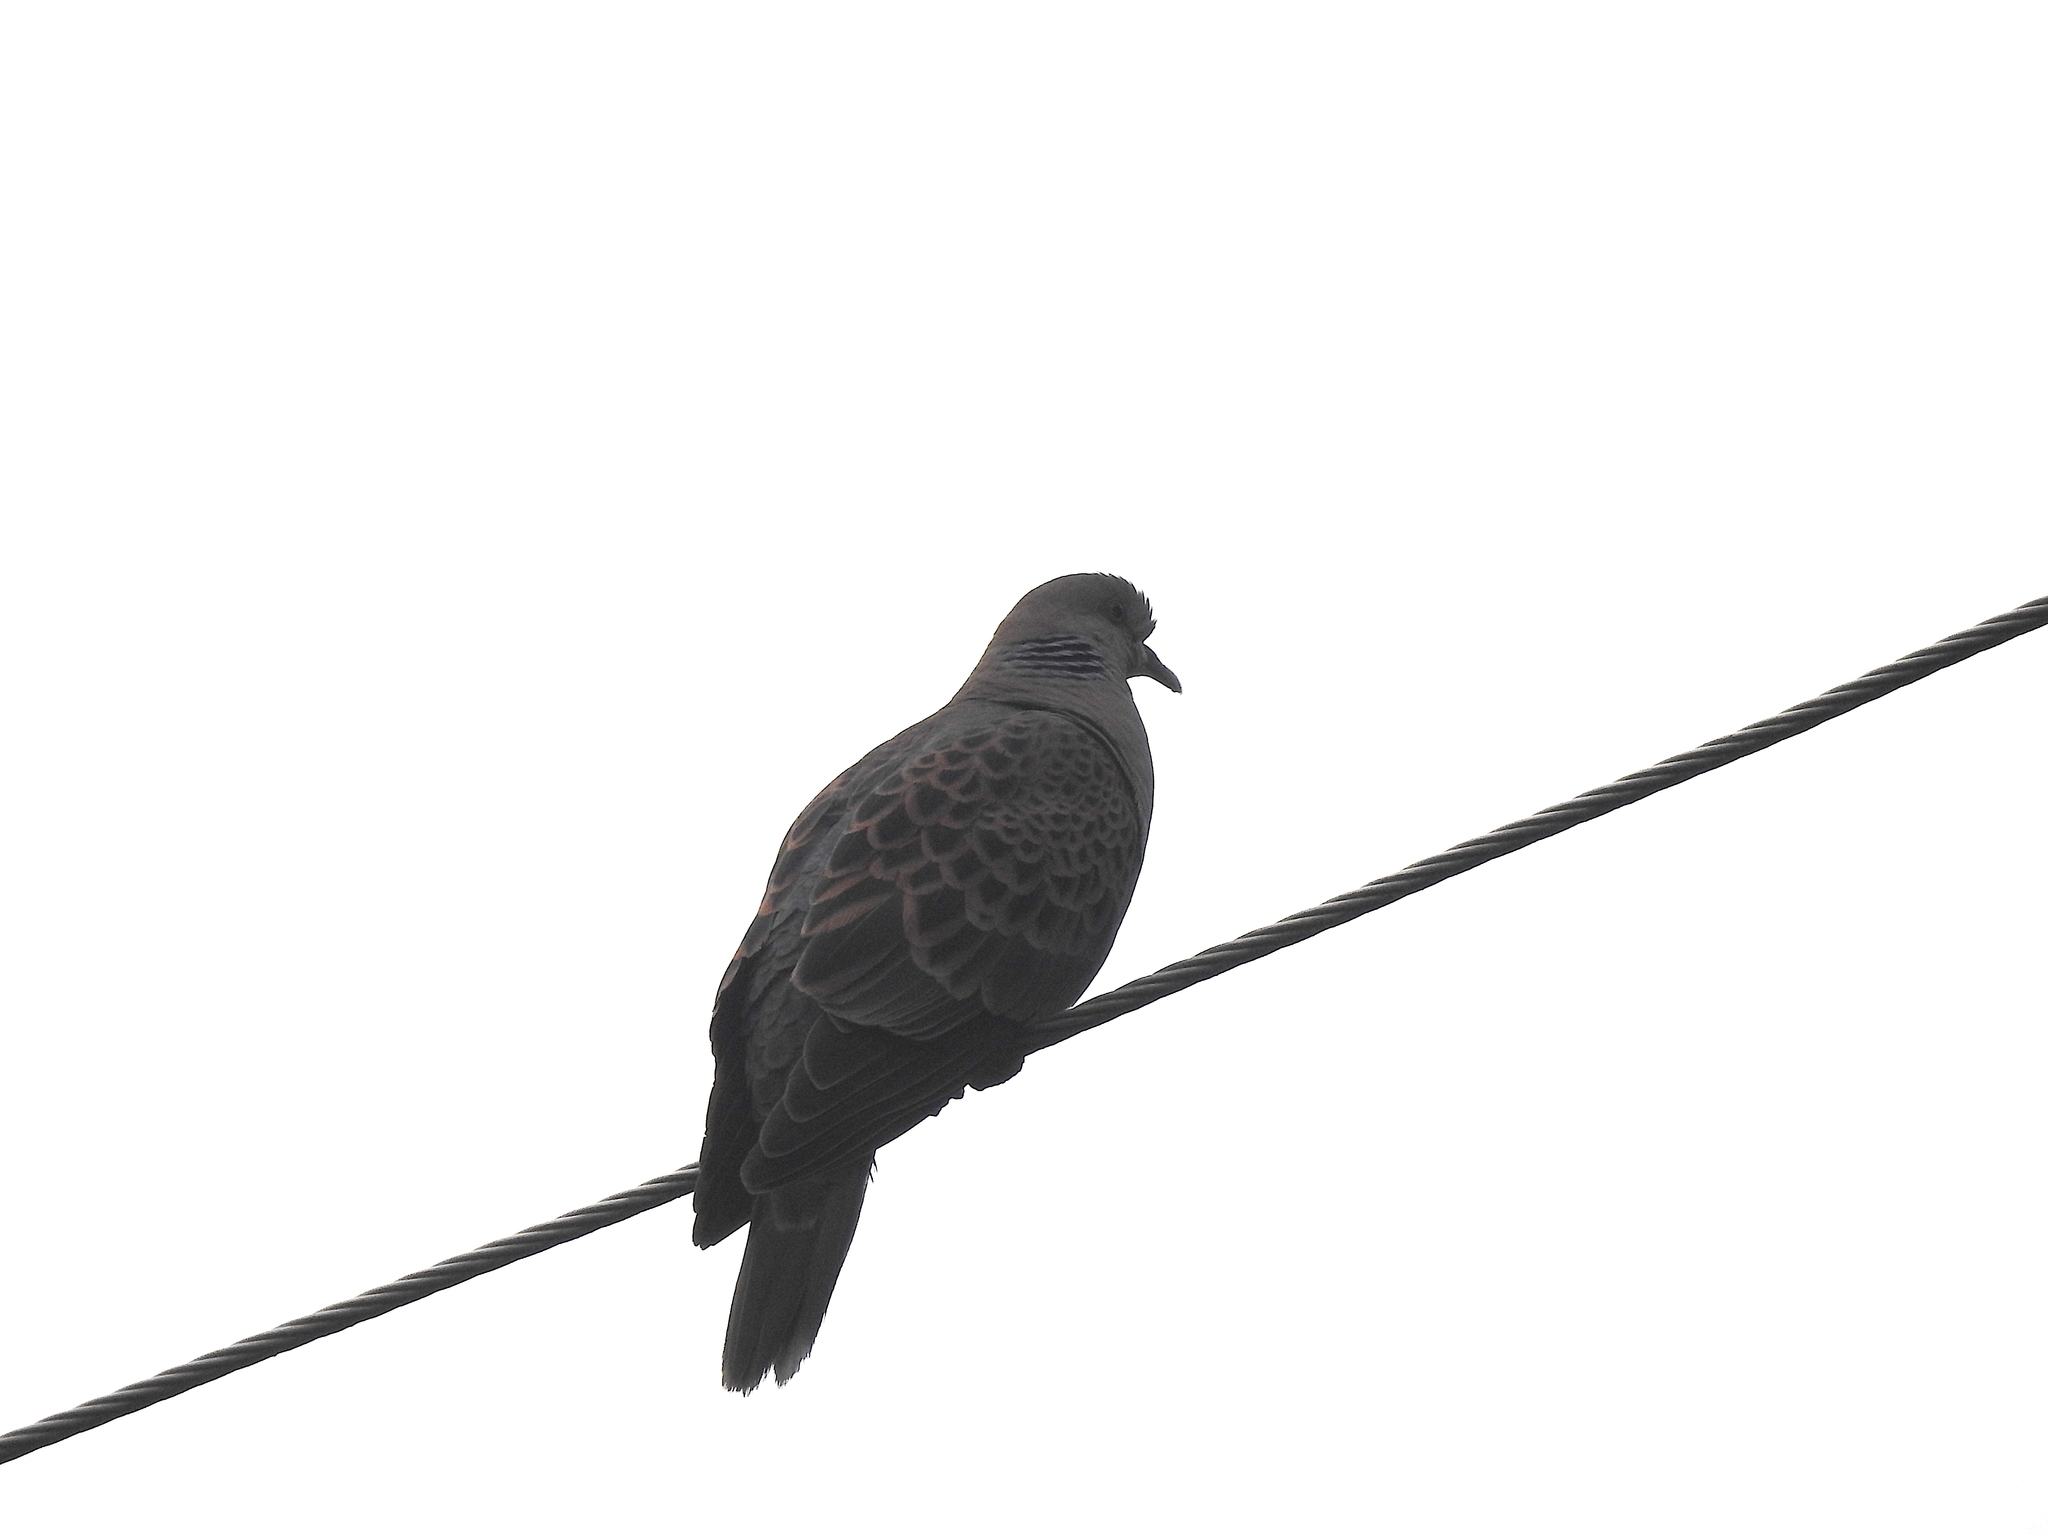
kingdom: Animalia
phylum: Chordata
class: Aves
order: Columbiformes
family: Columbidae
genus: Streptopelia
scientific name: Streptopelia orientalis
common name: Oriental turtle dove
